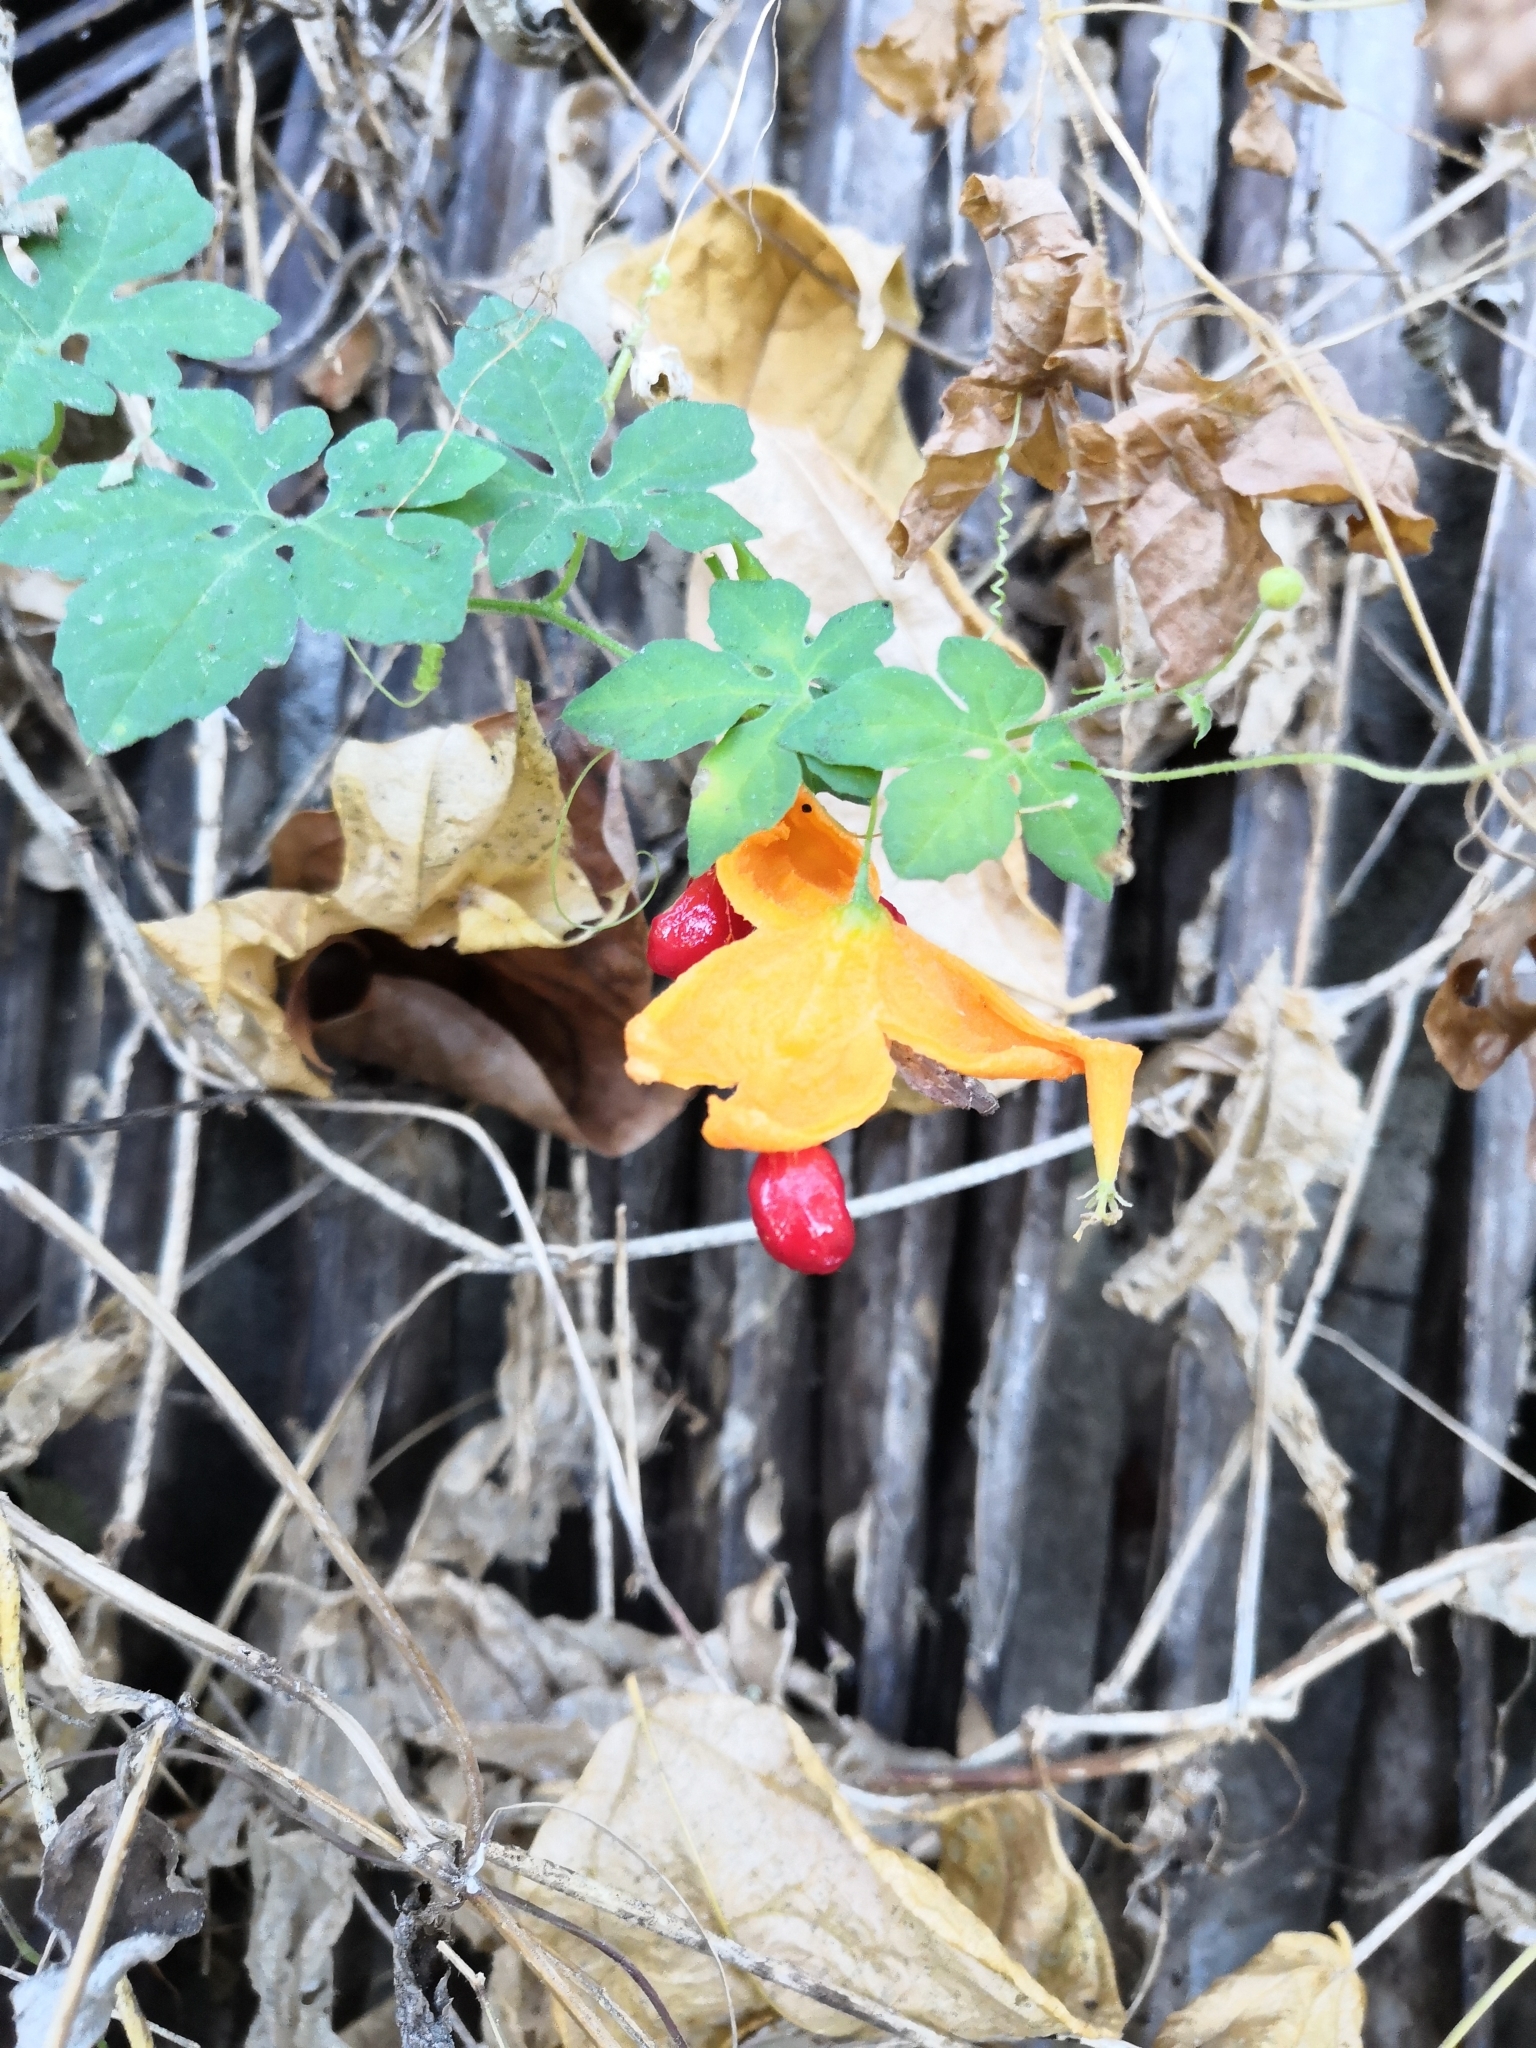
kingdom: Plantae
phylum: Tracheophyta
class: Magnoliopsida
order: Cucurbitales
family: Cucurbitaceae
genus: Momordica
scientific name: Momordica charantia
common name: Balsampear
